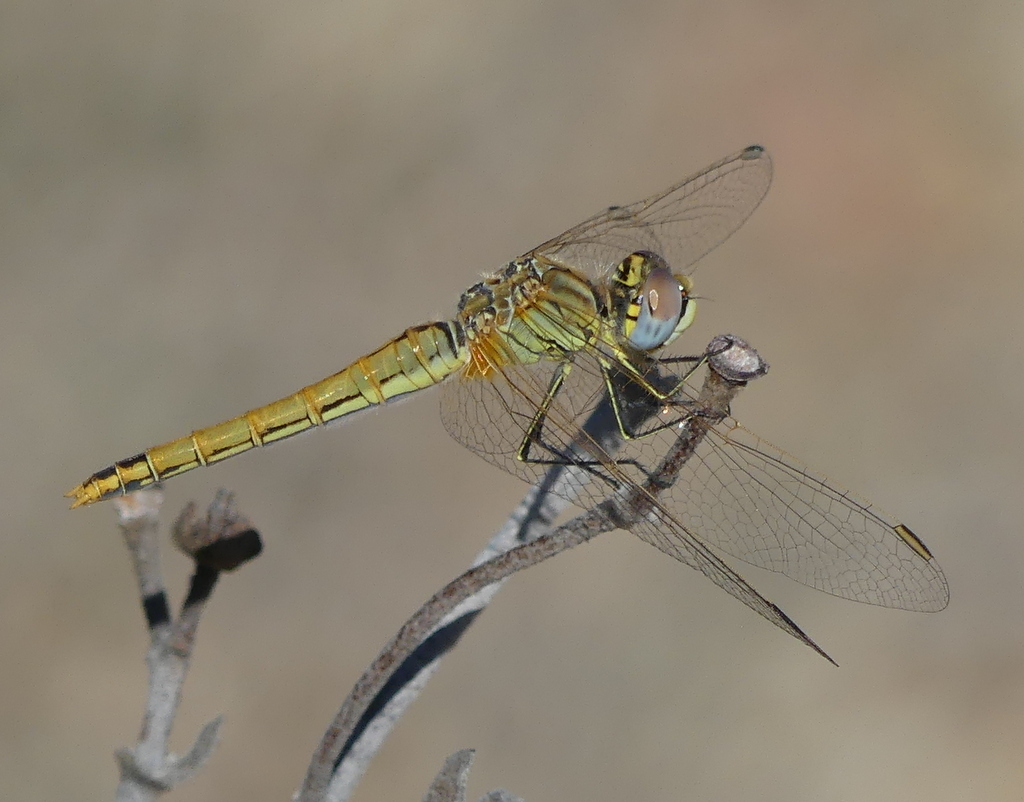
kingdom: Animalia
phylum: Arthropoda
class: Insecta
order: Odonata
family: Libellulidae
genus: Sympetrum
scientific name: Sympetrum fonscolombii
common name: Red-veined darter
